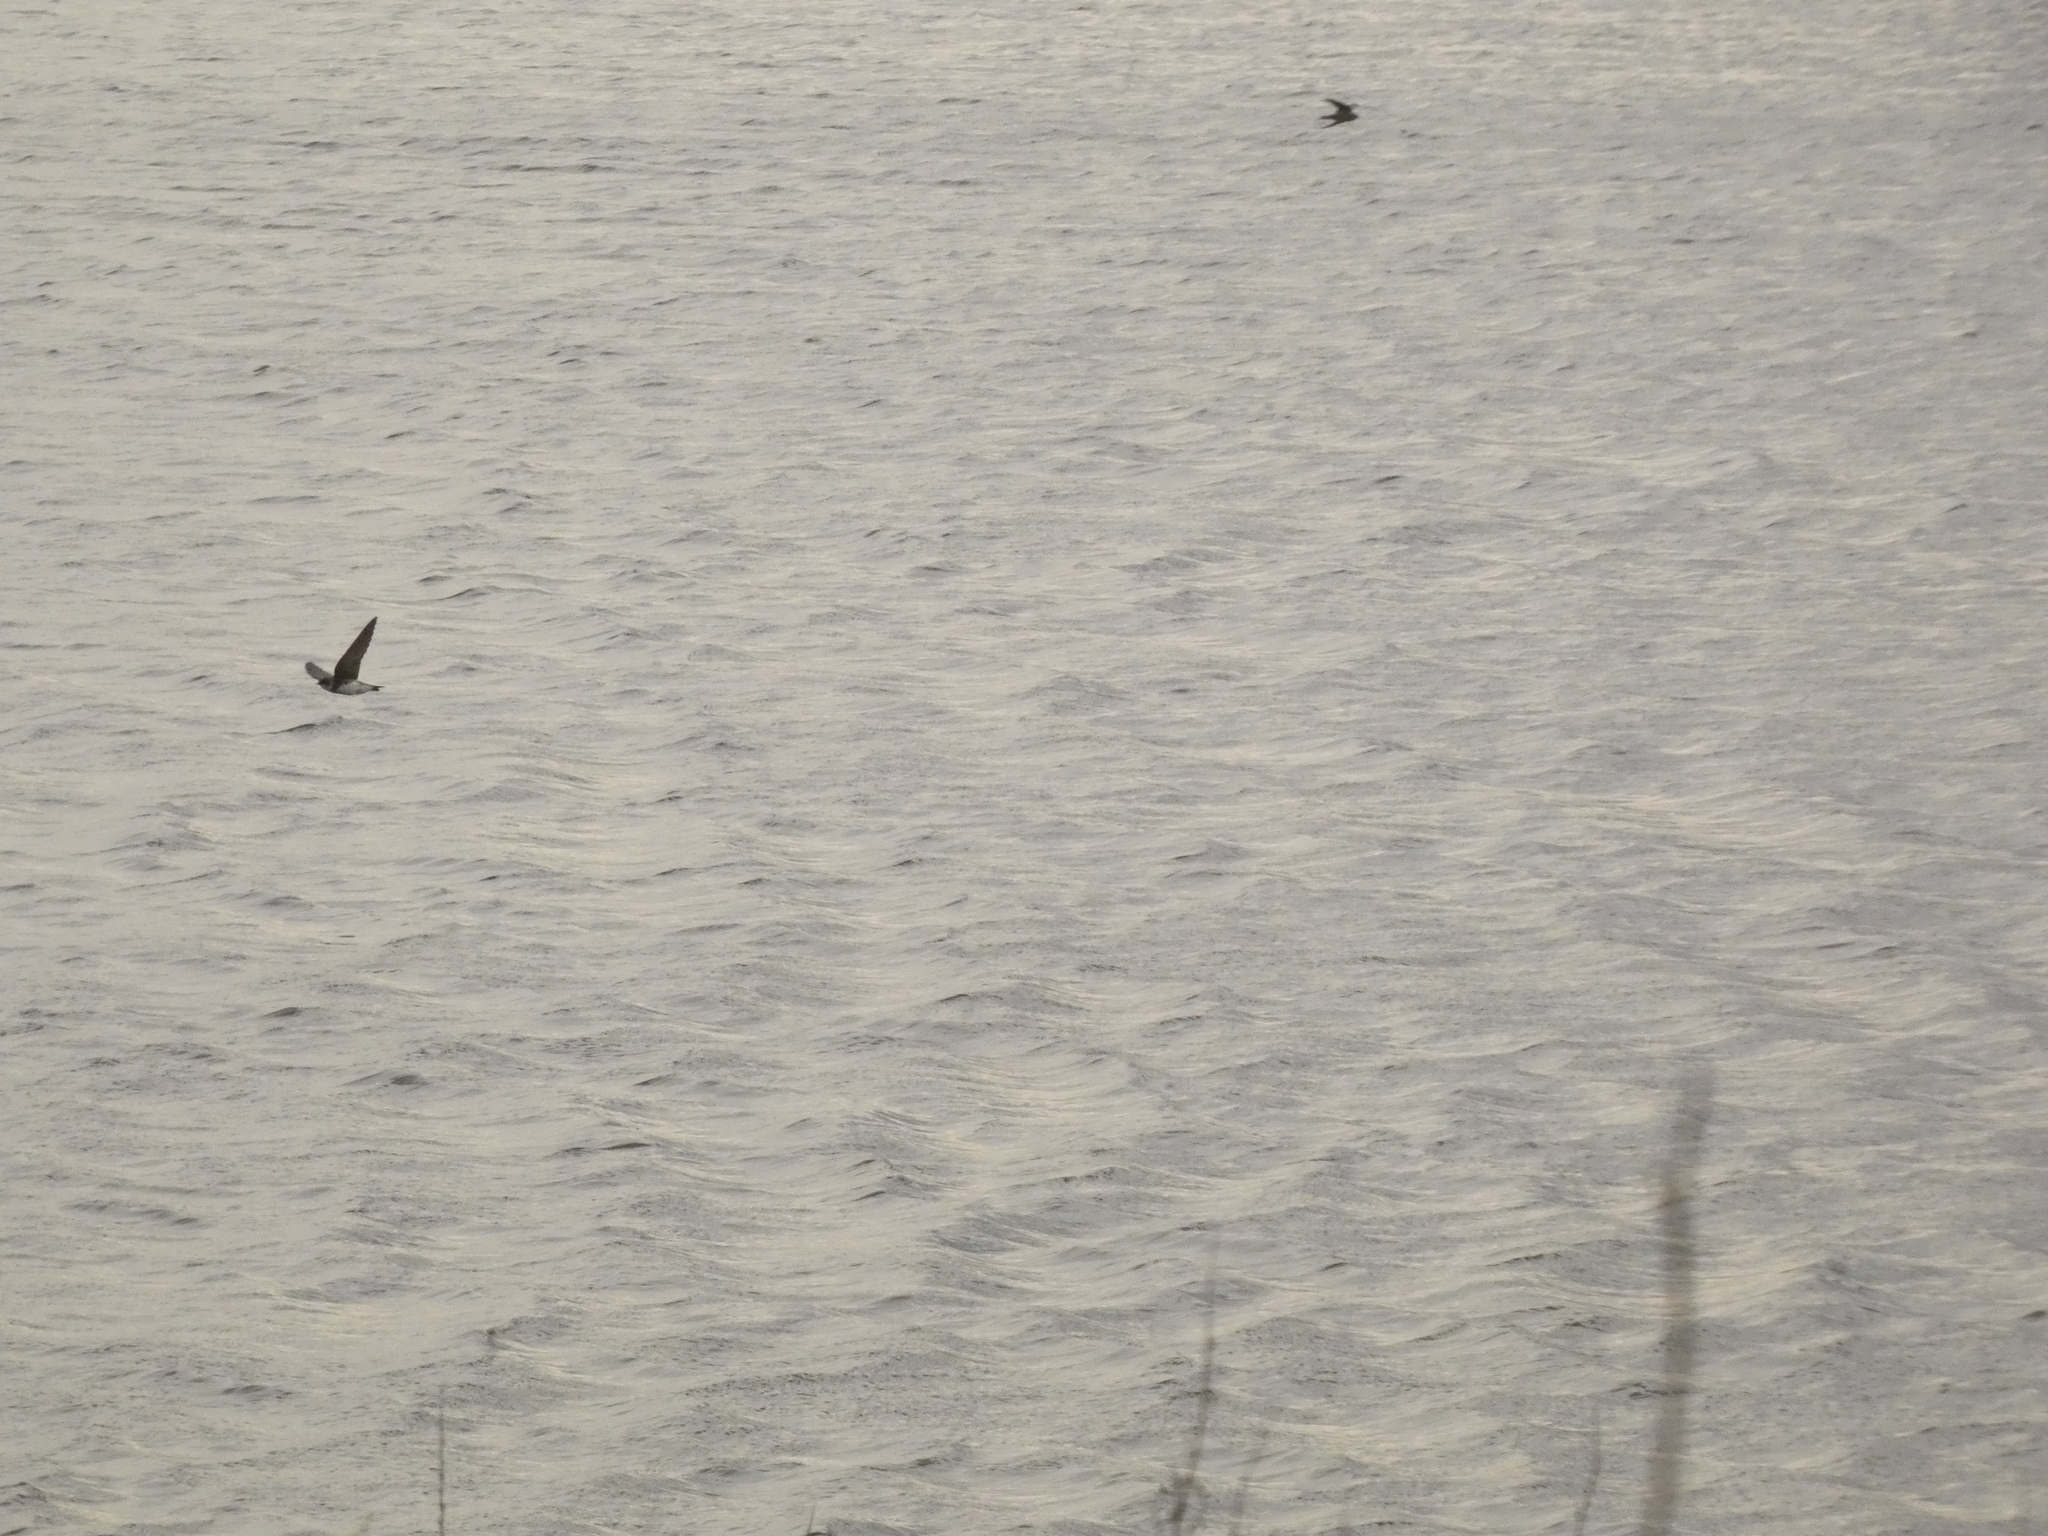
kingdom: Animalia
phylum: Chordata
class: Aves
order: Passeriformes
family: Hirundinidae
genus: Riparia
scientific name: Riparia riparia
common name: Sand martin
